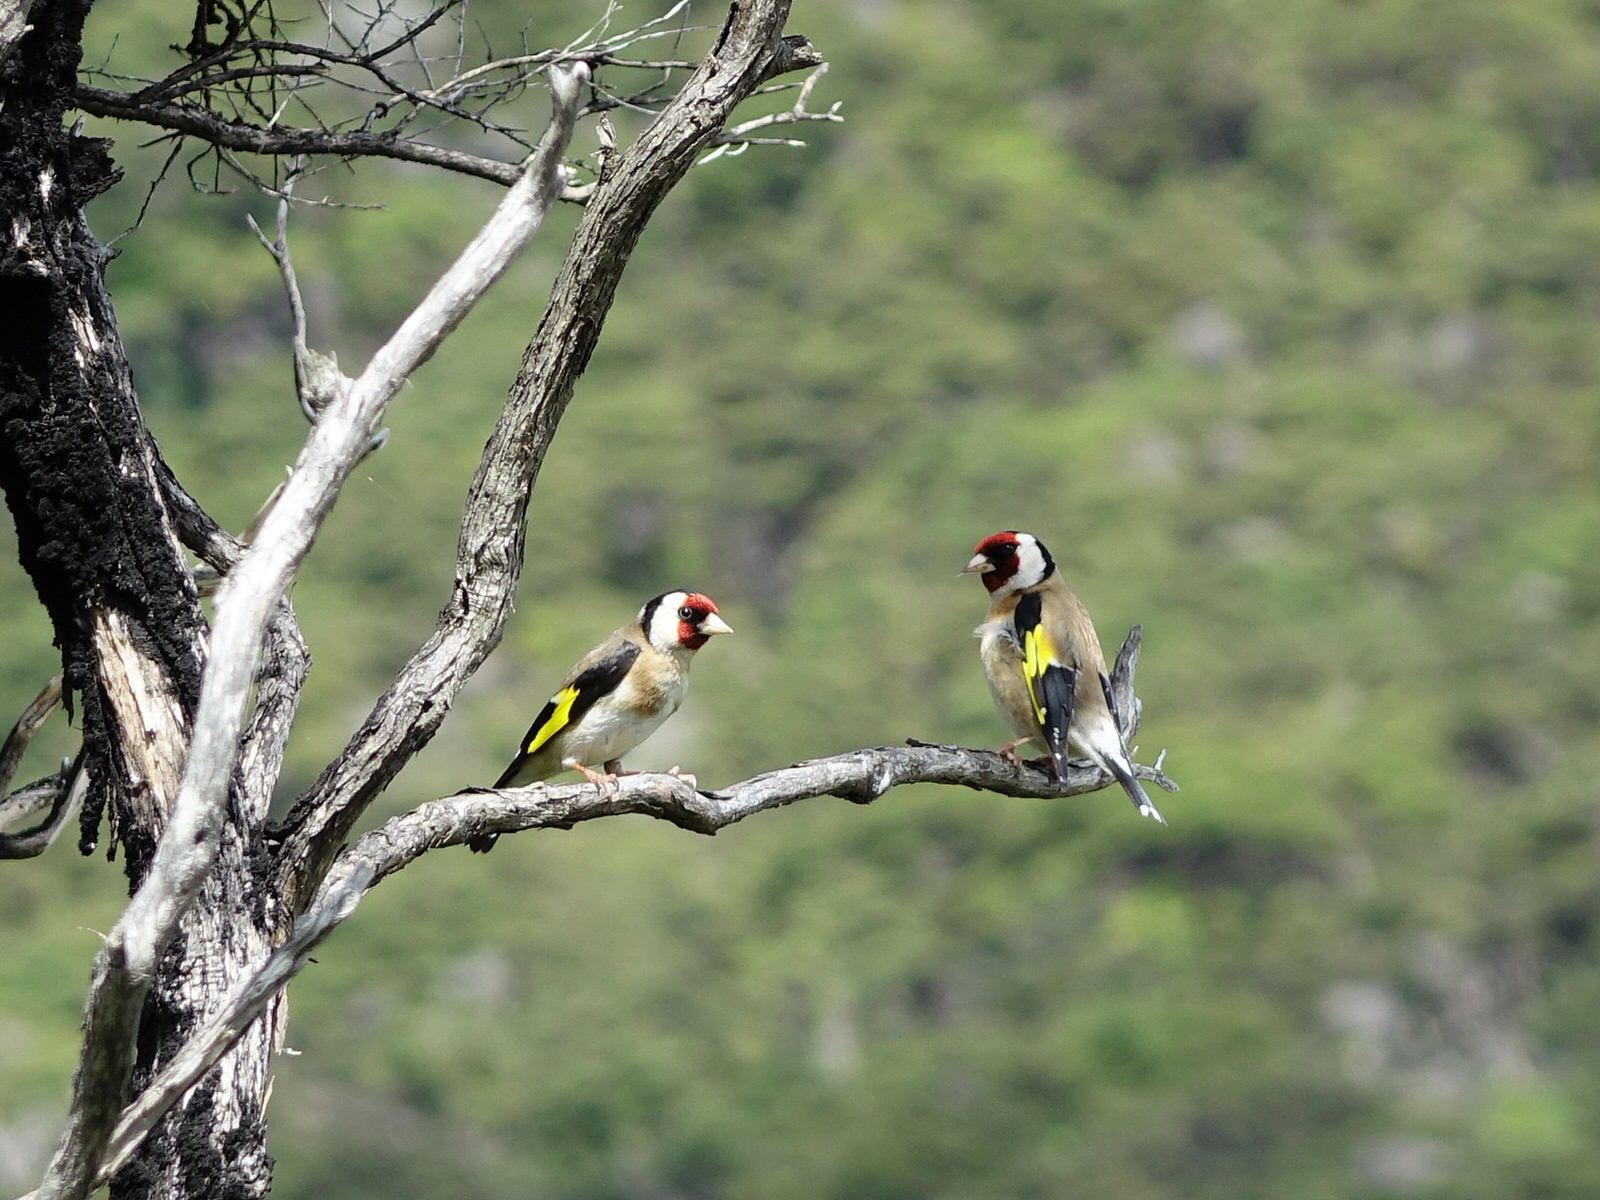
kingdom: Animalia
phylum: Chordata
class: Aves
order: Passeriformes
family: Fringillidae
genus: Carduelis
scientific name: Carduelis carduelis
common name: European goldfinch
